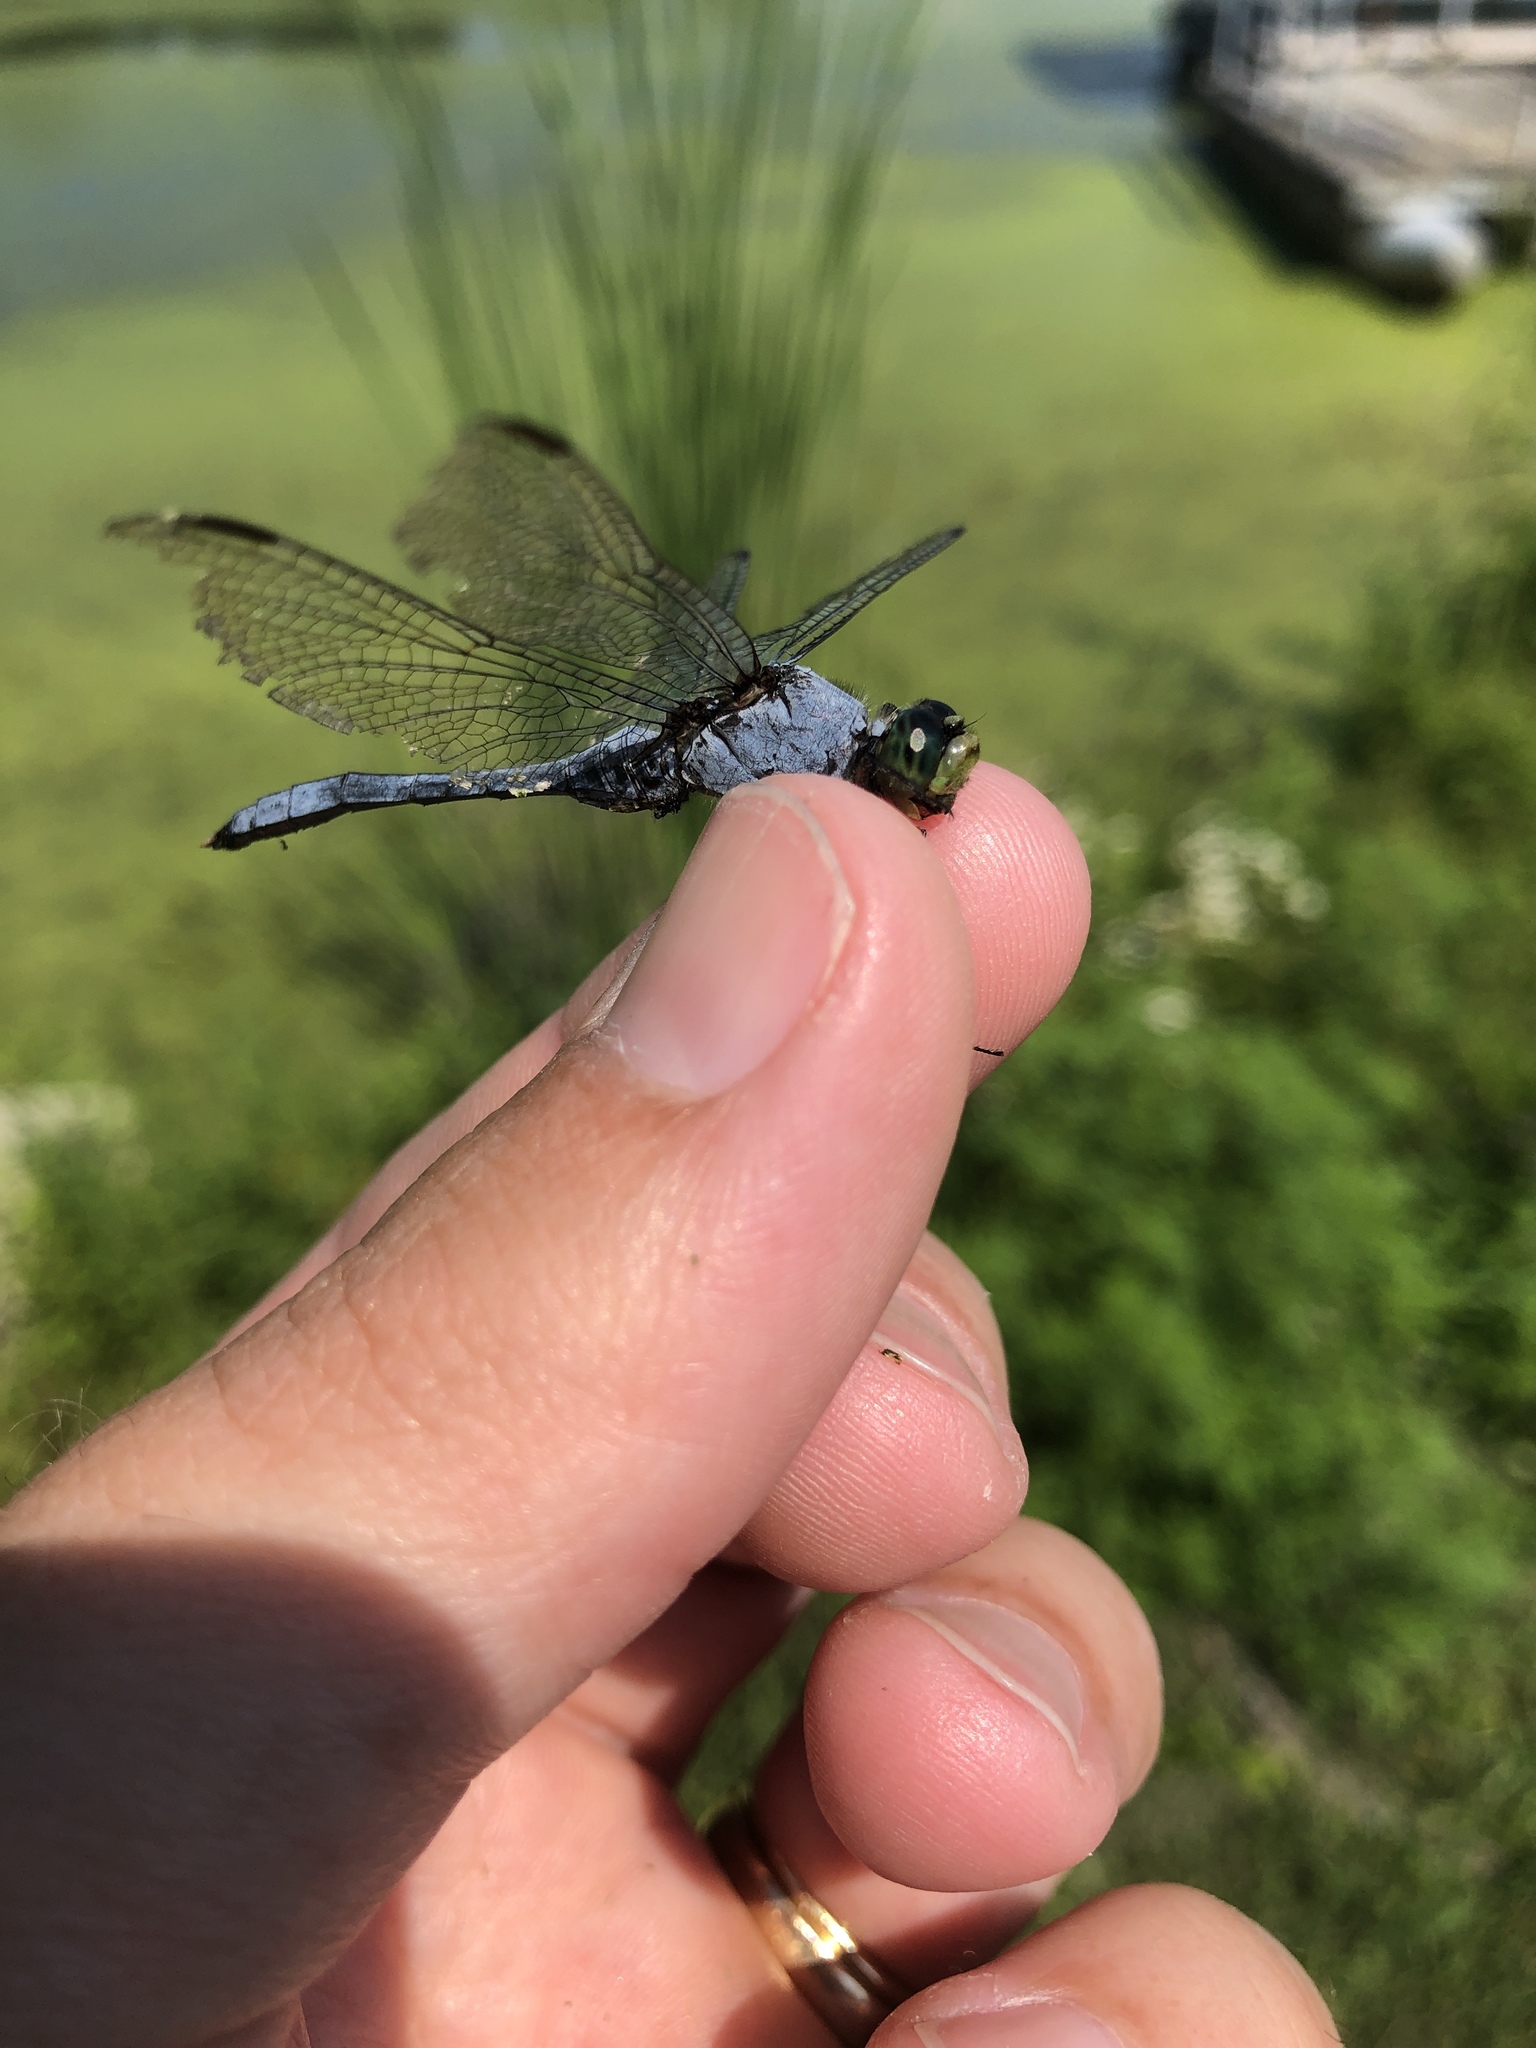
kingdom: Animalia
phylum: Arthropoda
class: Insecta
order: Odonata
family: Libellulidae
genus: Erythemis
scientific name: Erythemis simplicicollis
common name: Eastern pondhawk
